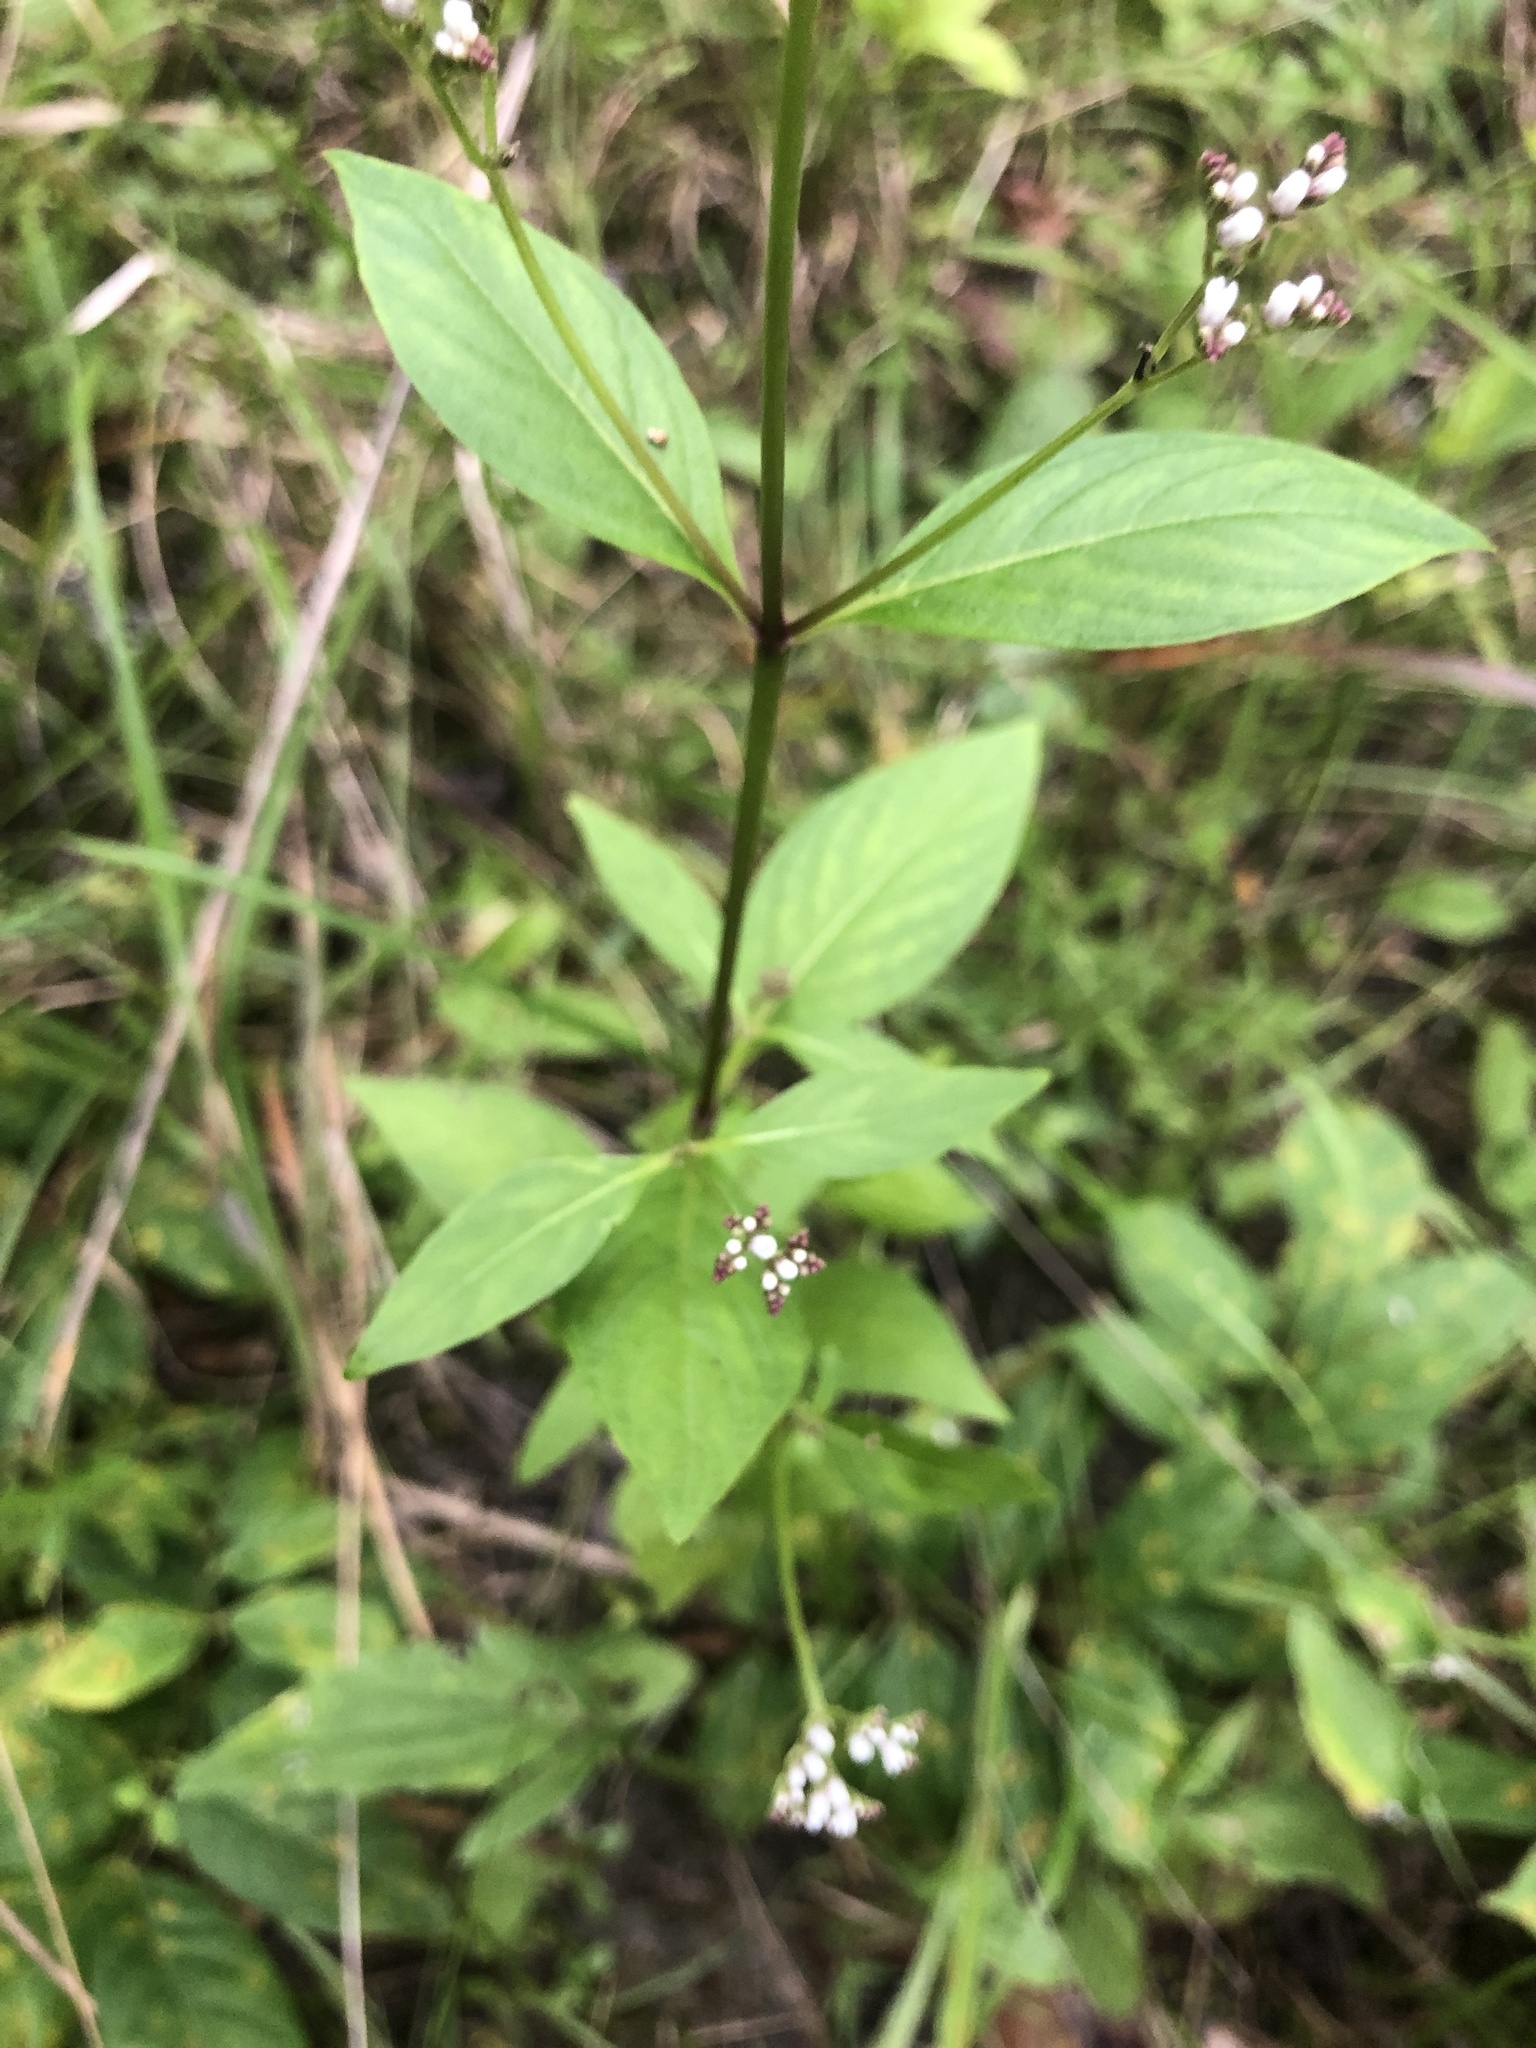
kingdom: Plantae
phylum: Tracheophyta
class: Magnoliopsida
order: Gentianales
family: Loganiaceae
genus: Mitreola
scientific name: Mitreola petiolata
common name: Lax hornpod
